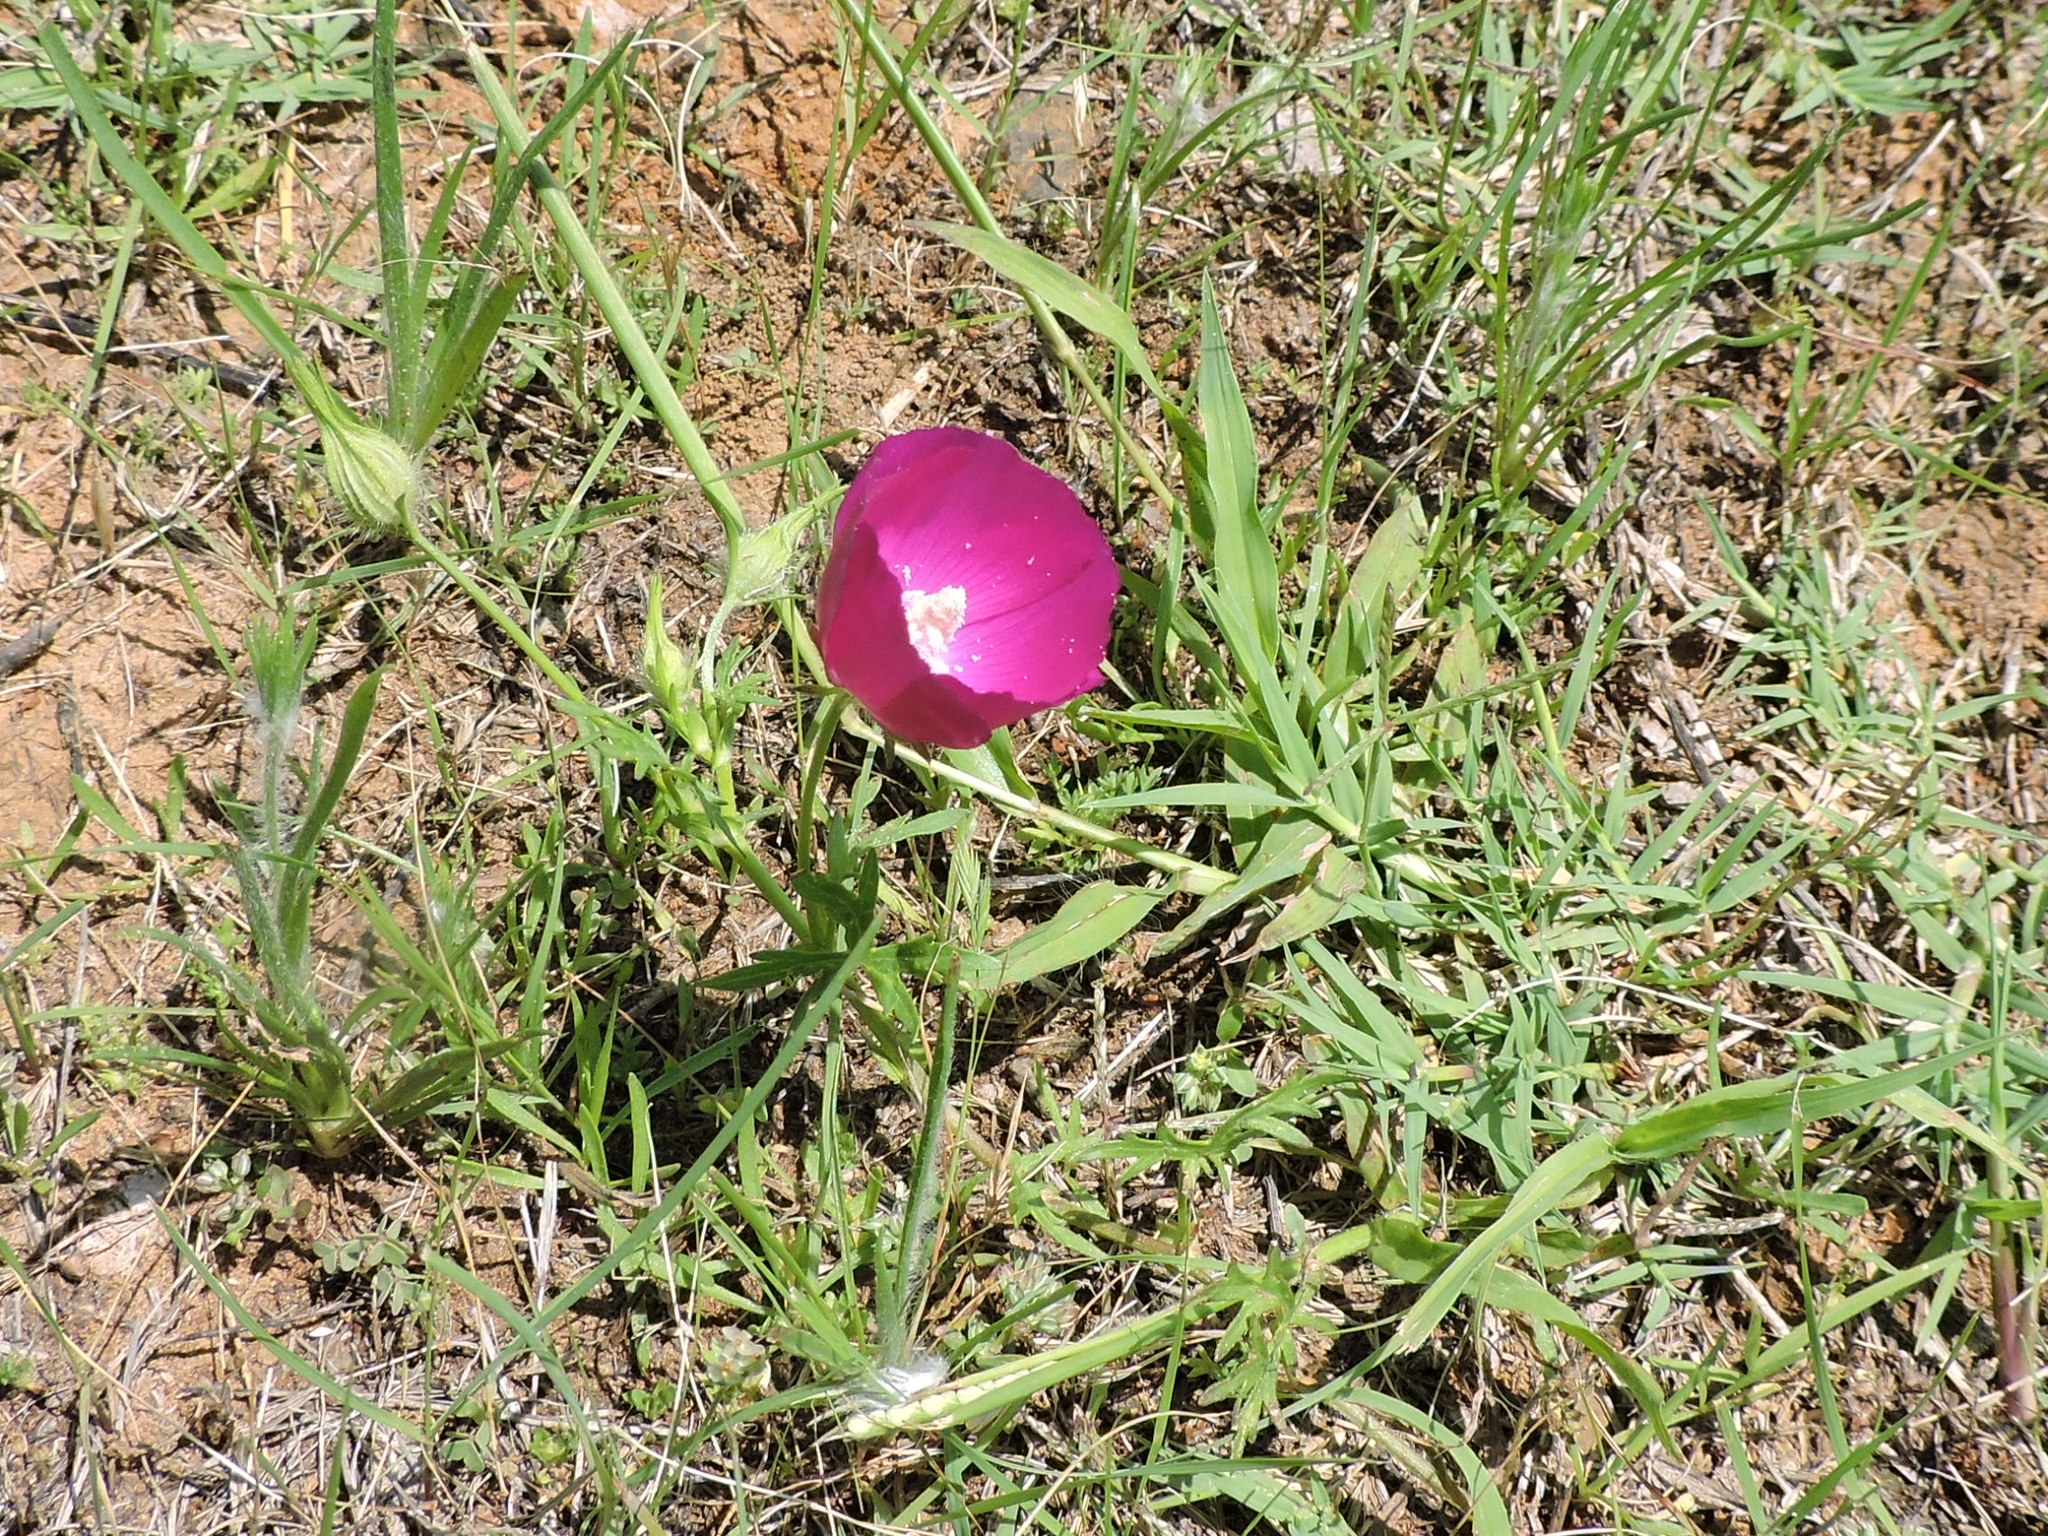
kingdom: Plantae
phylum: Tracheophyta
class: Magnoliopsida
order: Malvales
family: Malvaceae
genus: Callirhoe
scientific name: Callirhoe involucrata
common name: Purple poppy-mallow
